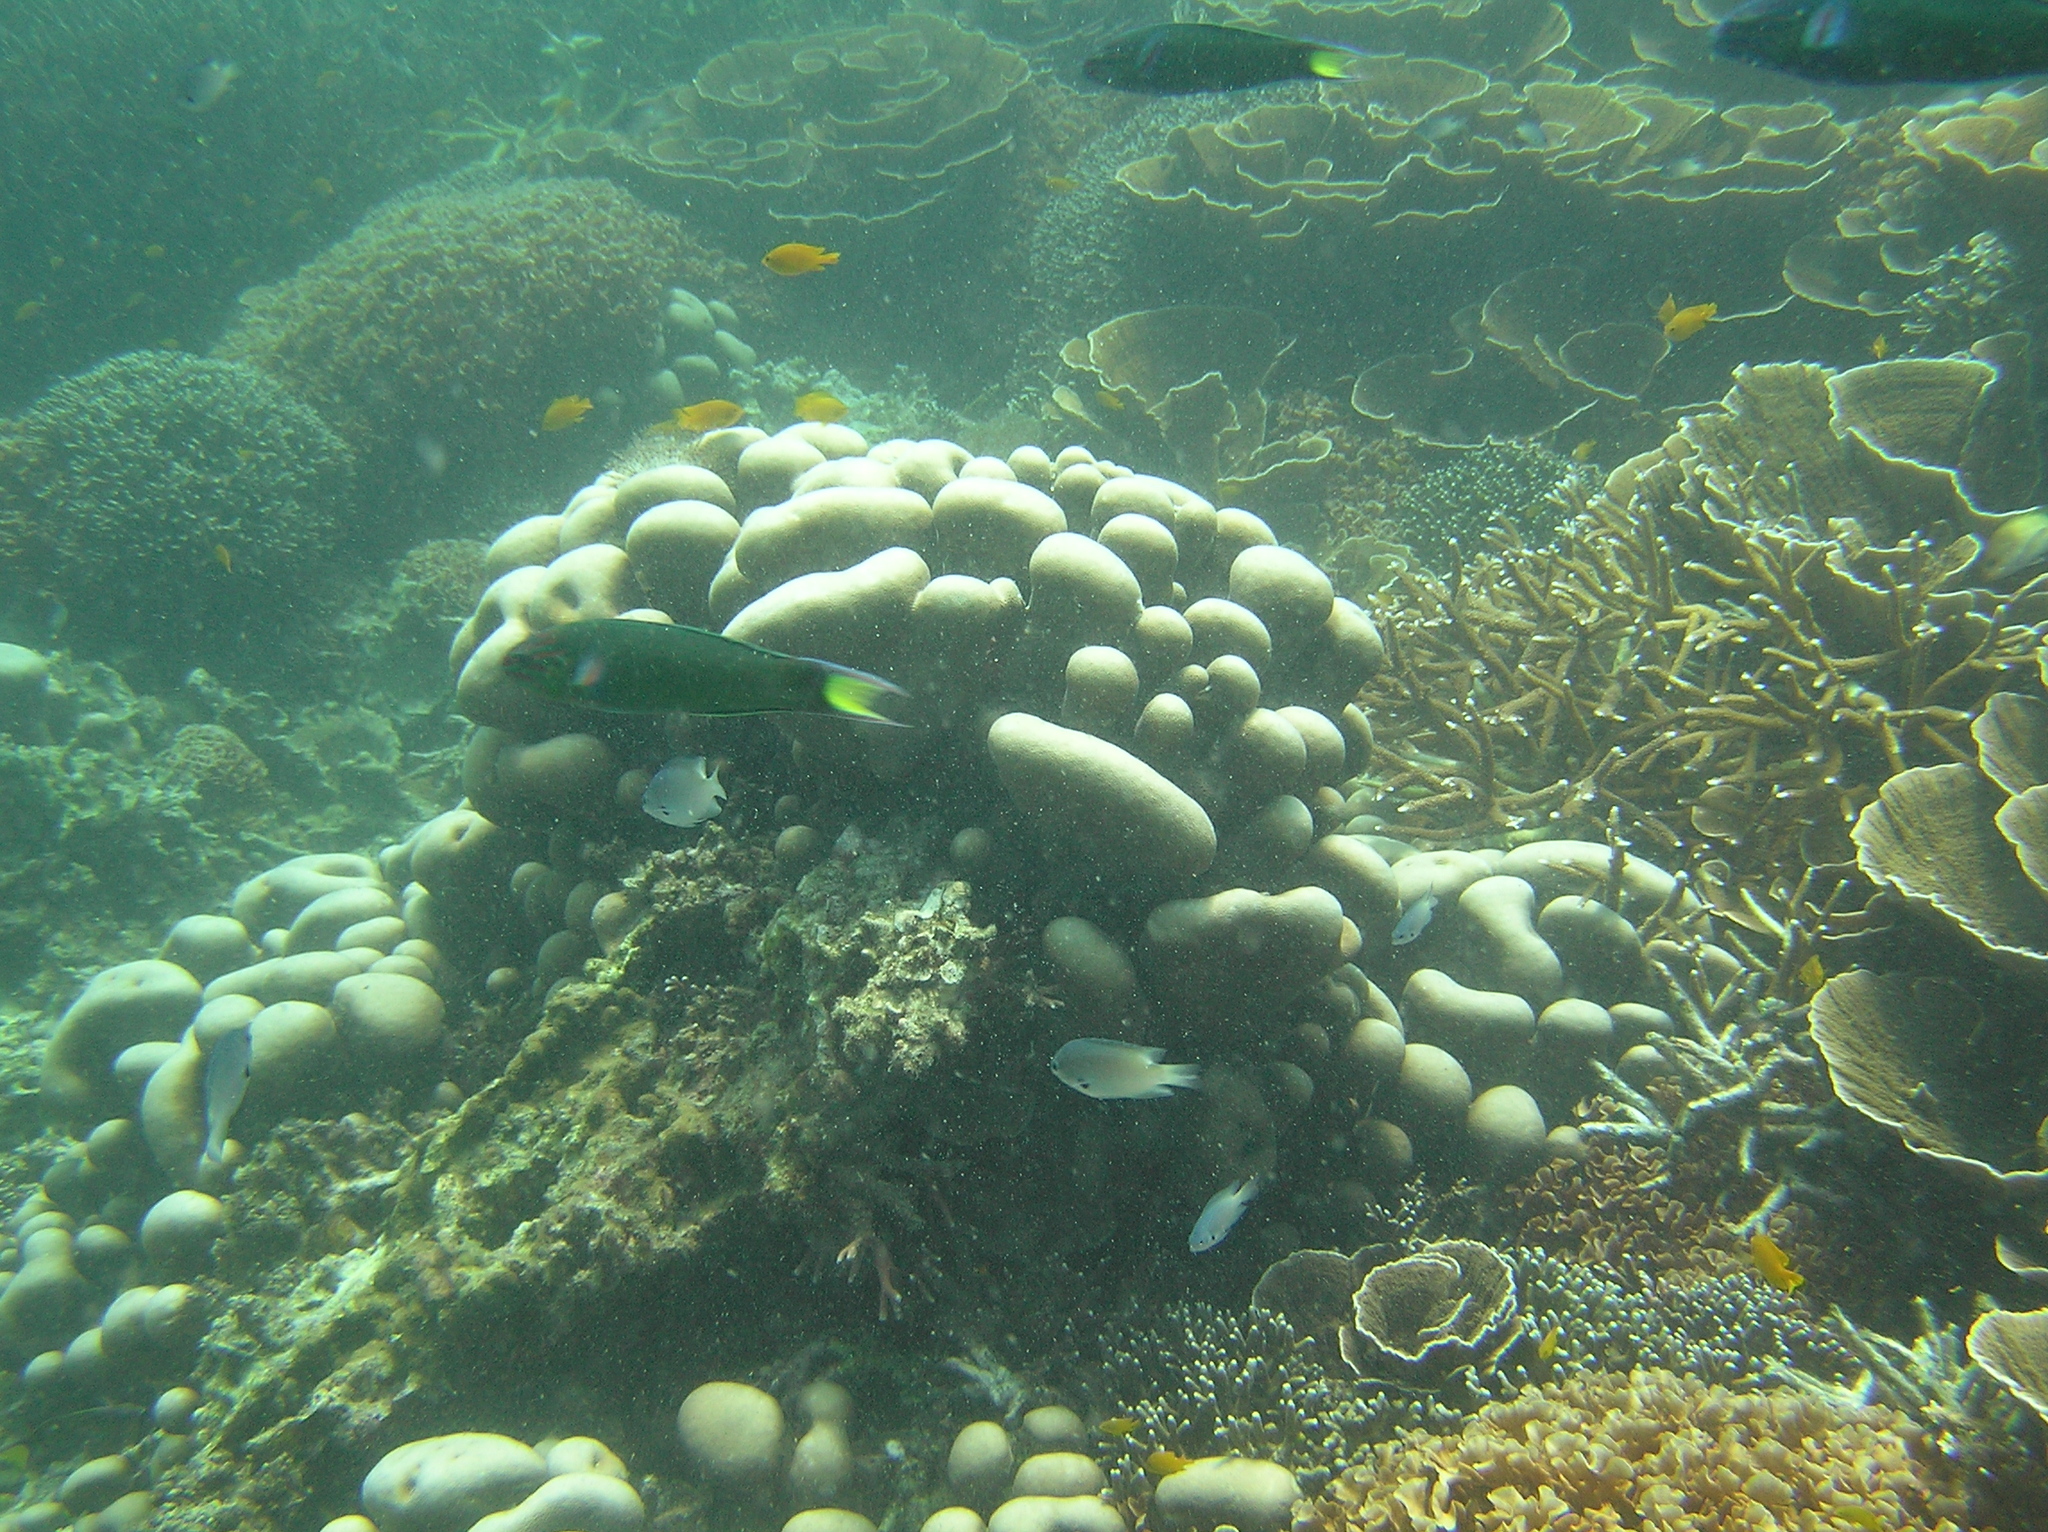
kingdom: Animalia
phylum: Chordata
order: Perciformes
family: Labridae
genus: Thalassoma
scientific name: Thalassoma lunare
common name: Blue wrasse
